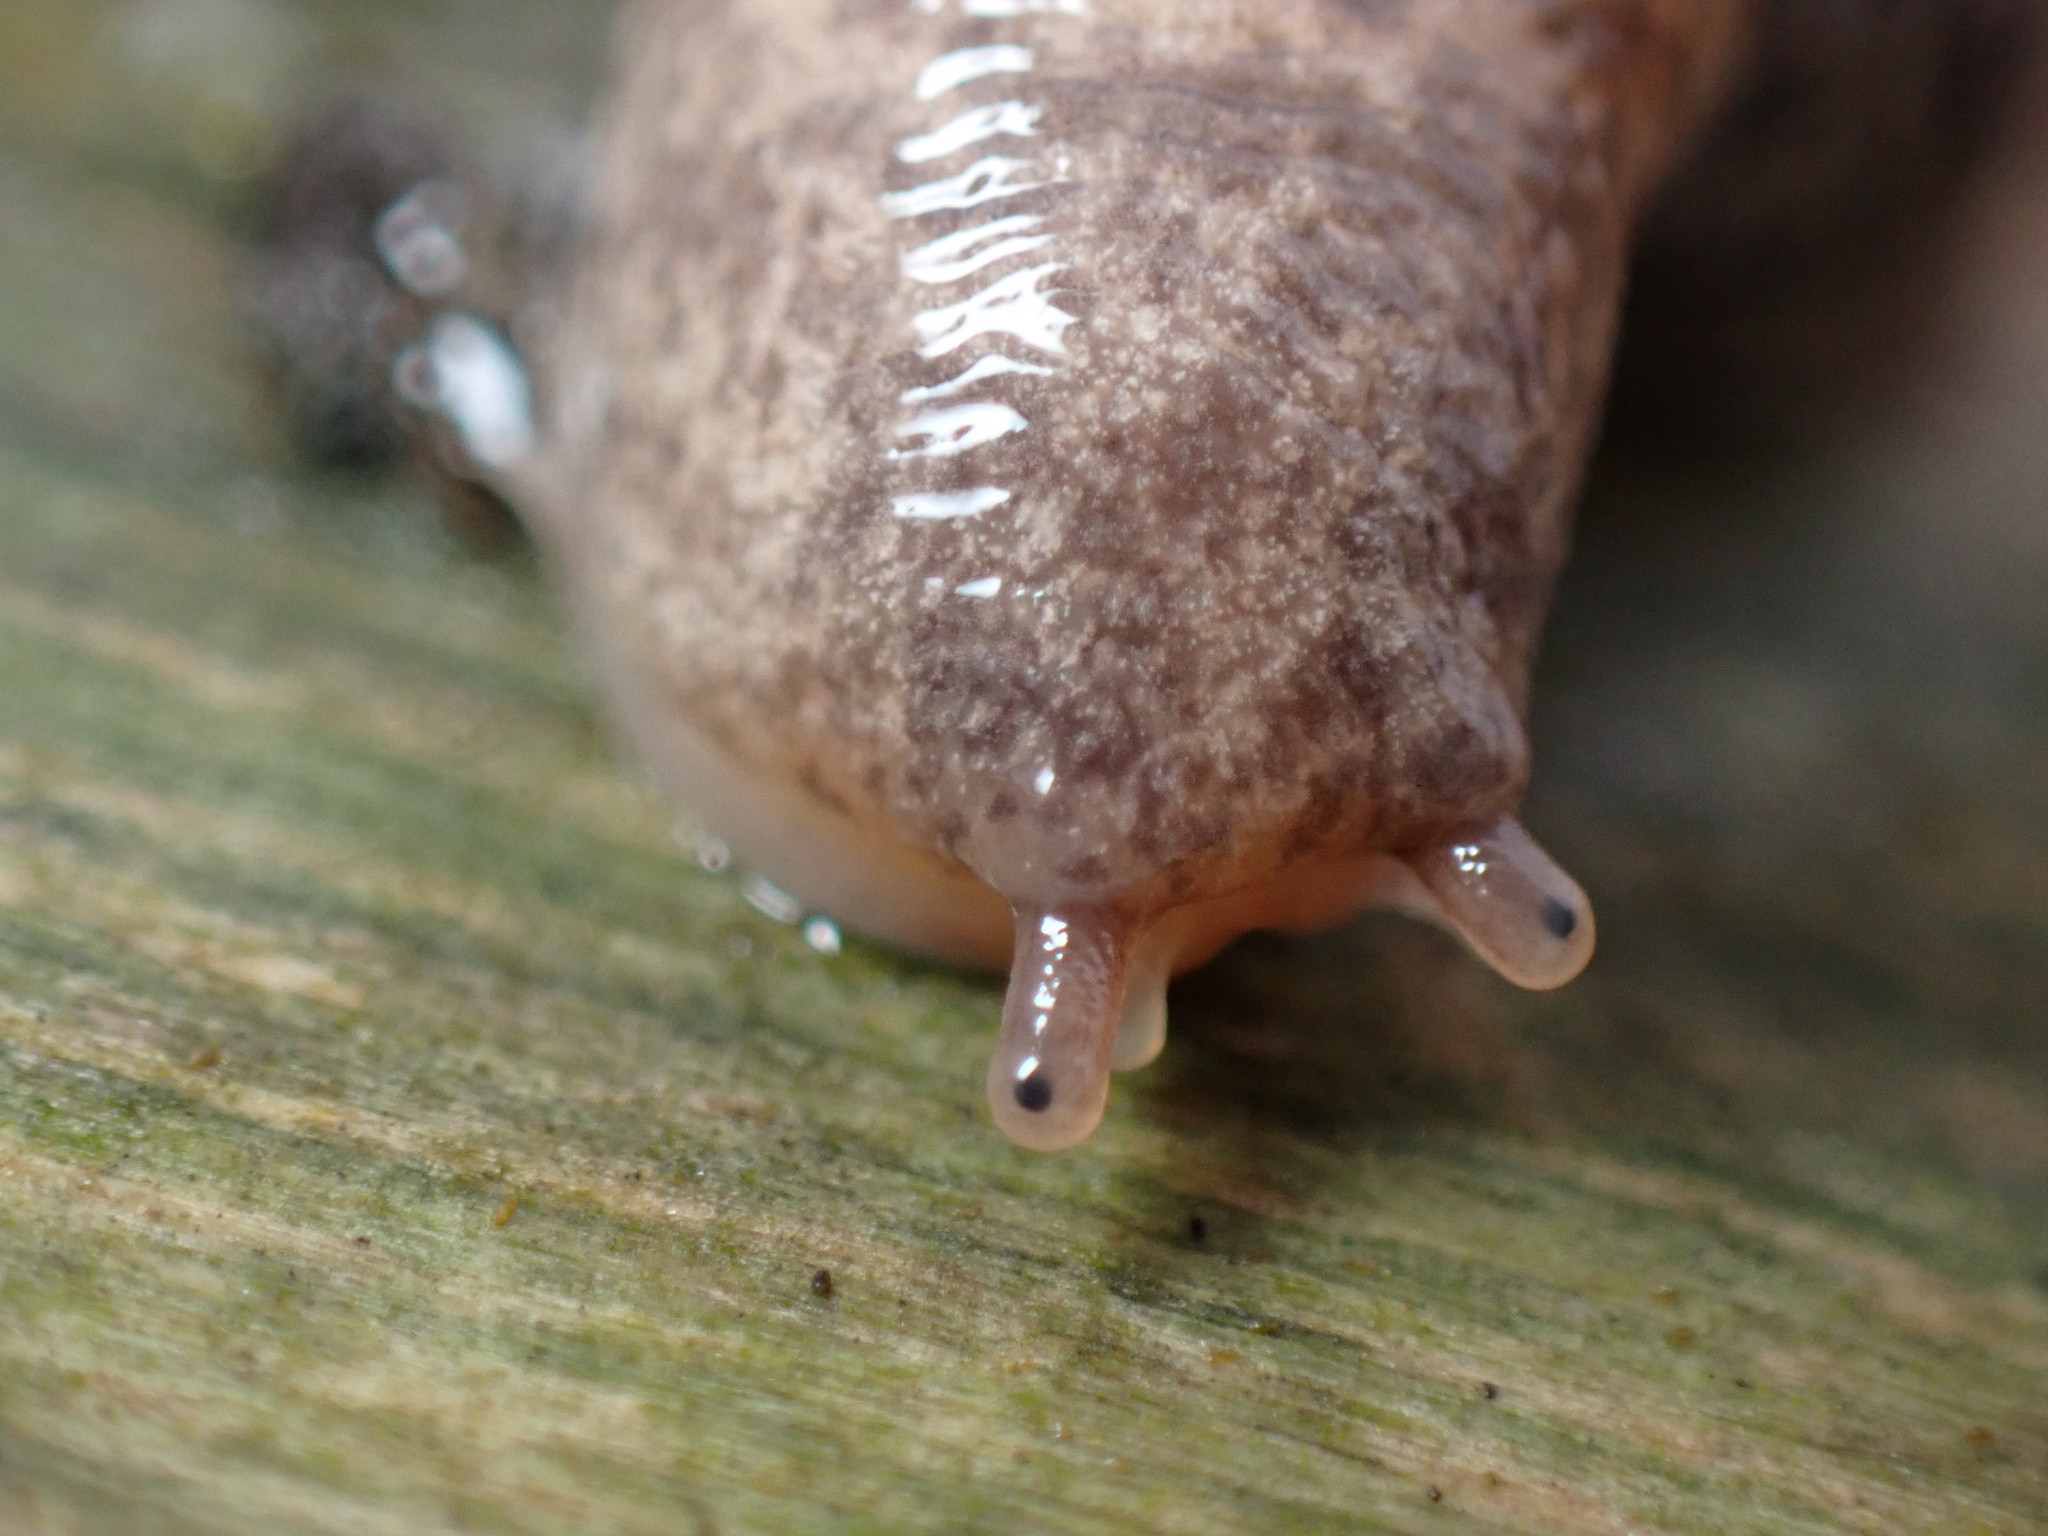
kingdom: Animalia
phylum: Mollusca
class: Gastropoda
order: Stylommatophora
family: Agriolimacidae
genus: Deroceras
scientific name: Deroceras laeve
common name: Marsh slug
